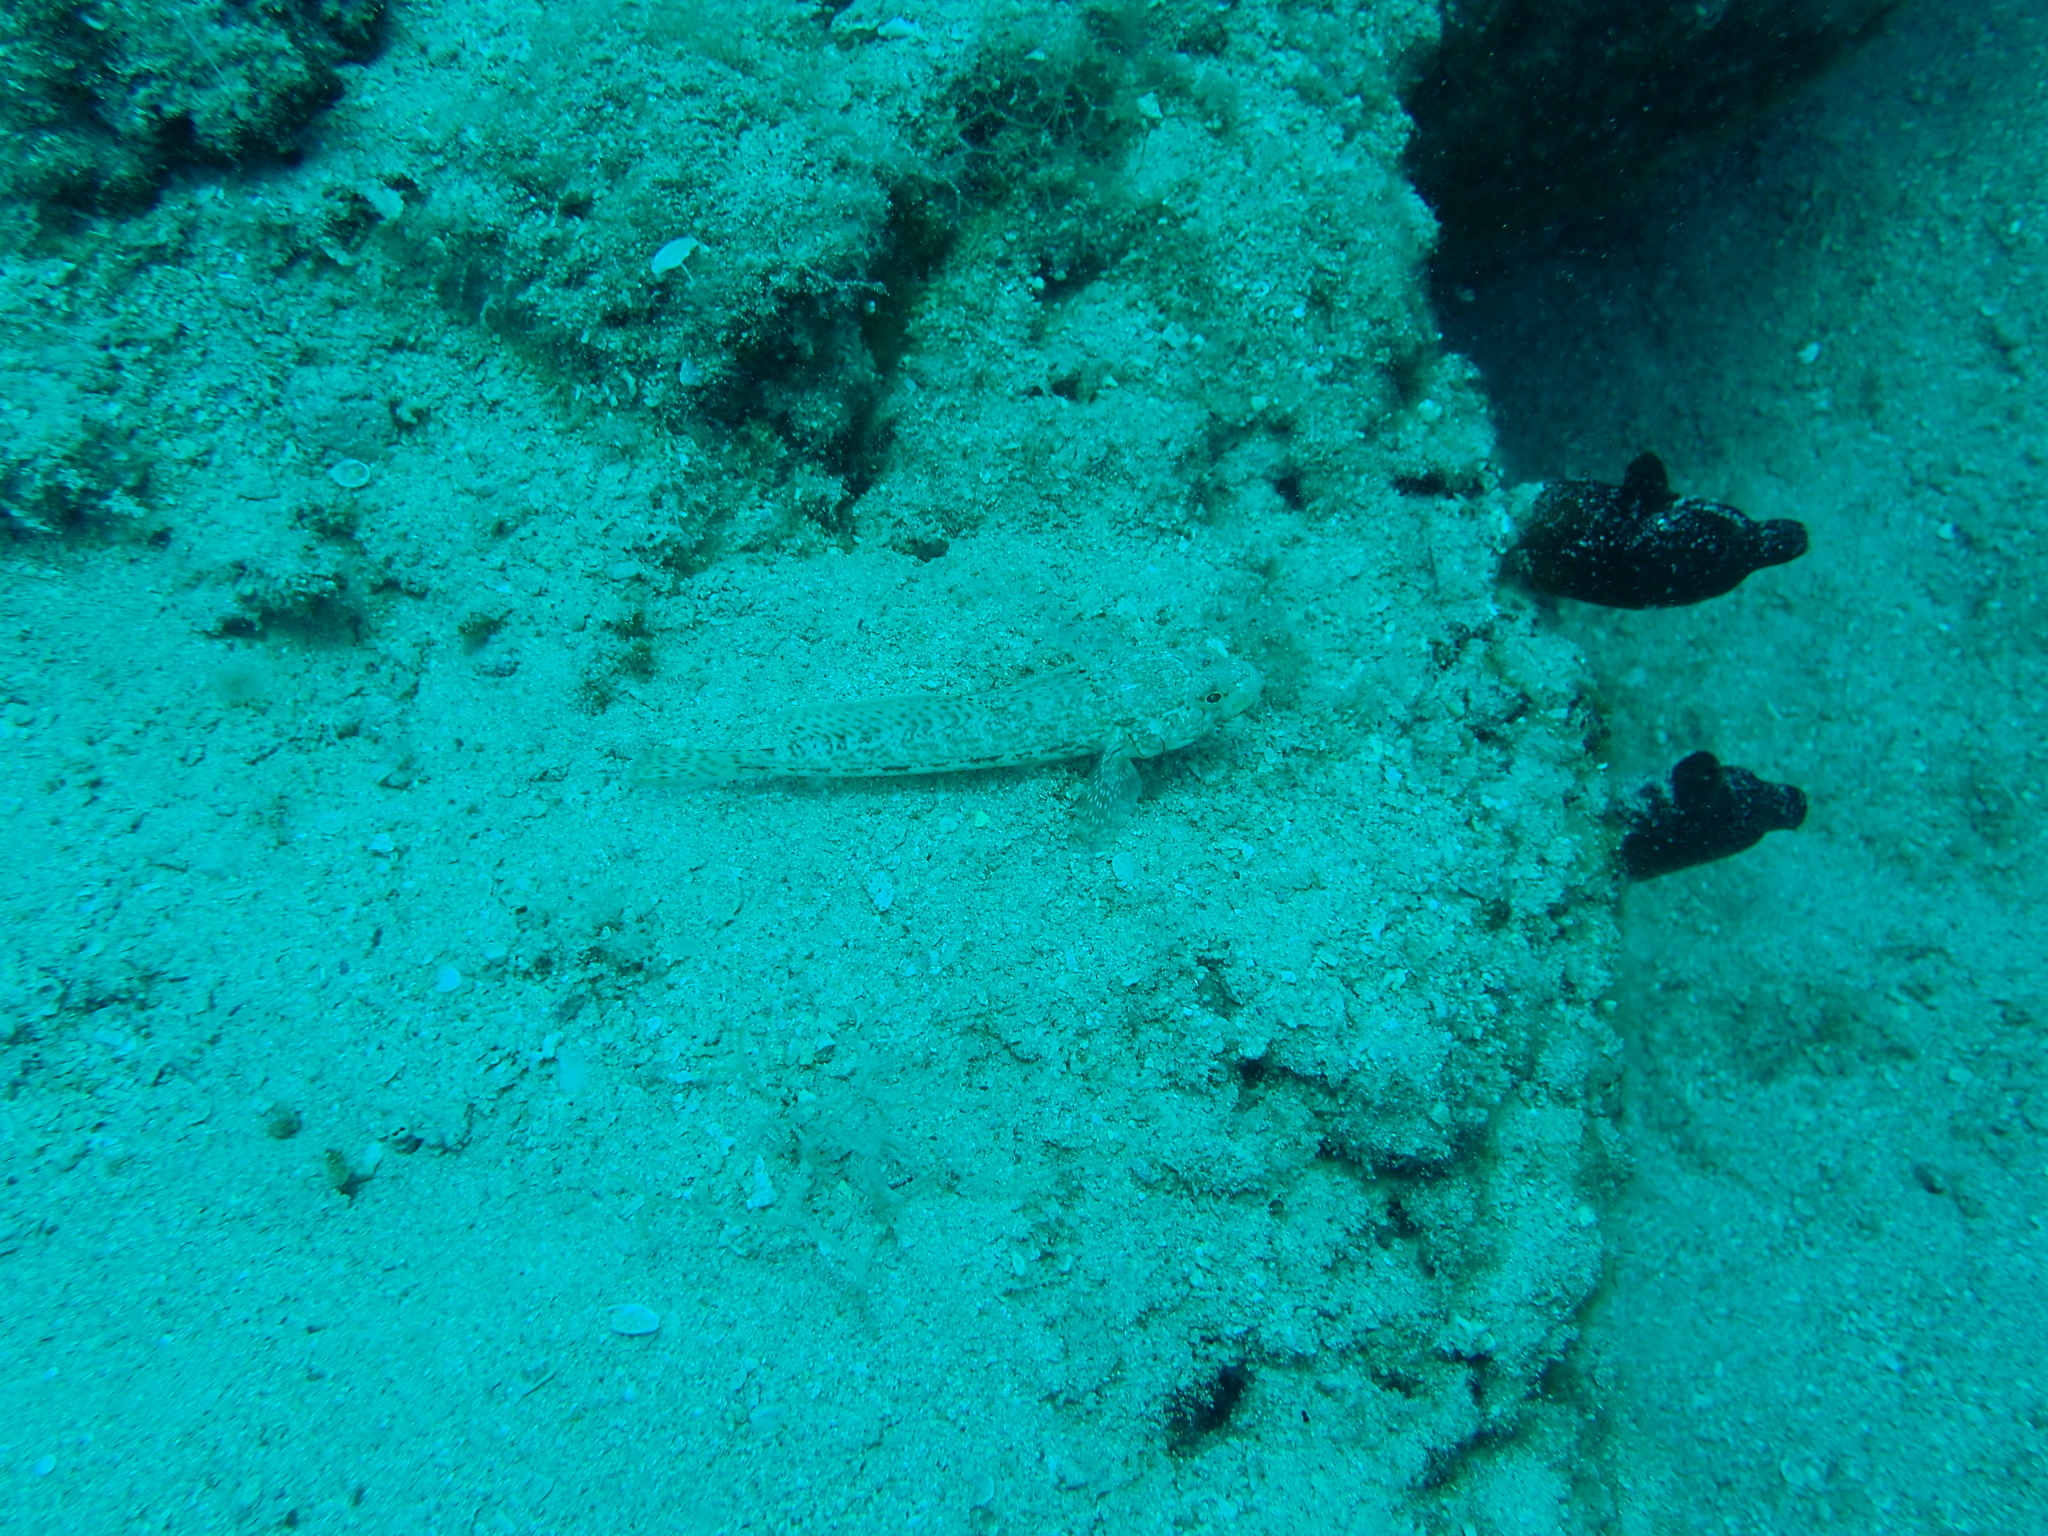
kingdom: Animalia
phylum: Chordata
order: Perciformes
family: Gobiidae
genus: Gobius
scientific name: Gobius geniporus
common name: Slender goby
